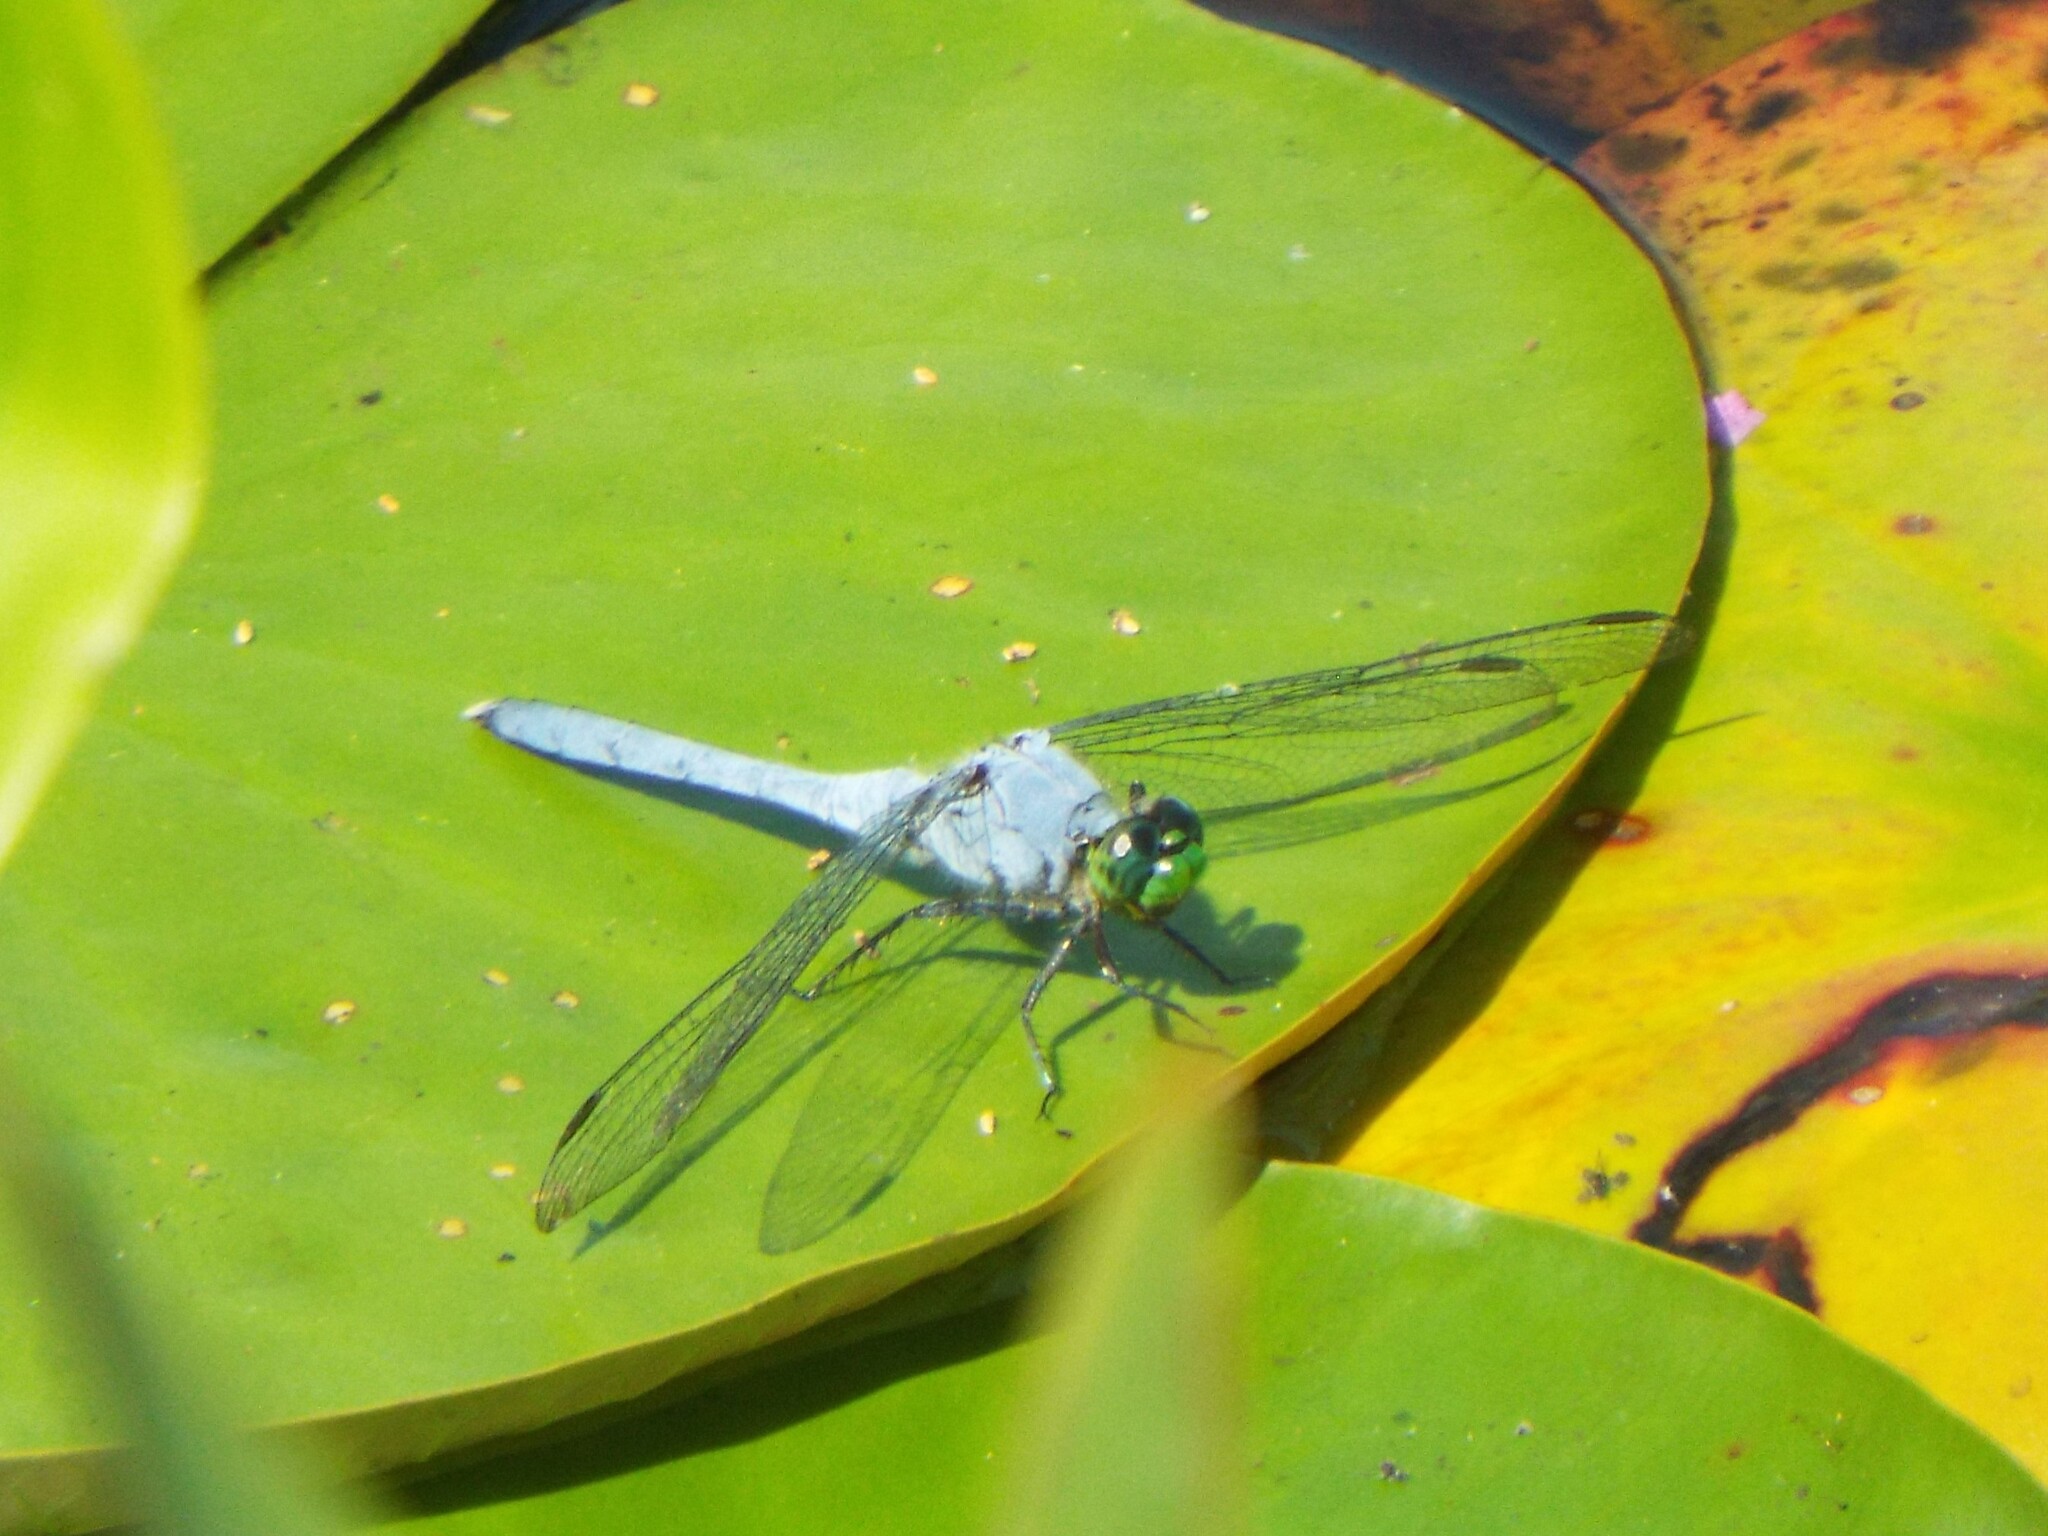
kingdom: Animalia
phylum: Arthropoda
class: Insecta
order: Odonata
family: Libellulidae
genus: Erythemis
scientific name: Erythemis simplicicollis
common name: Eastern pondhawk
